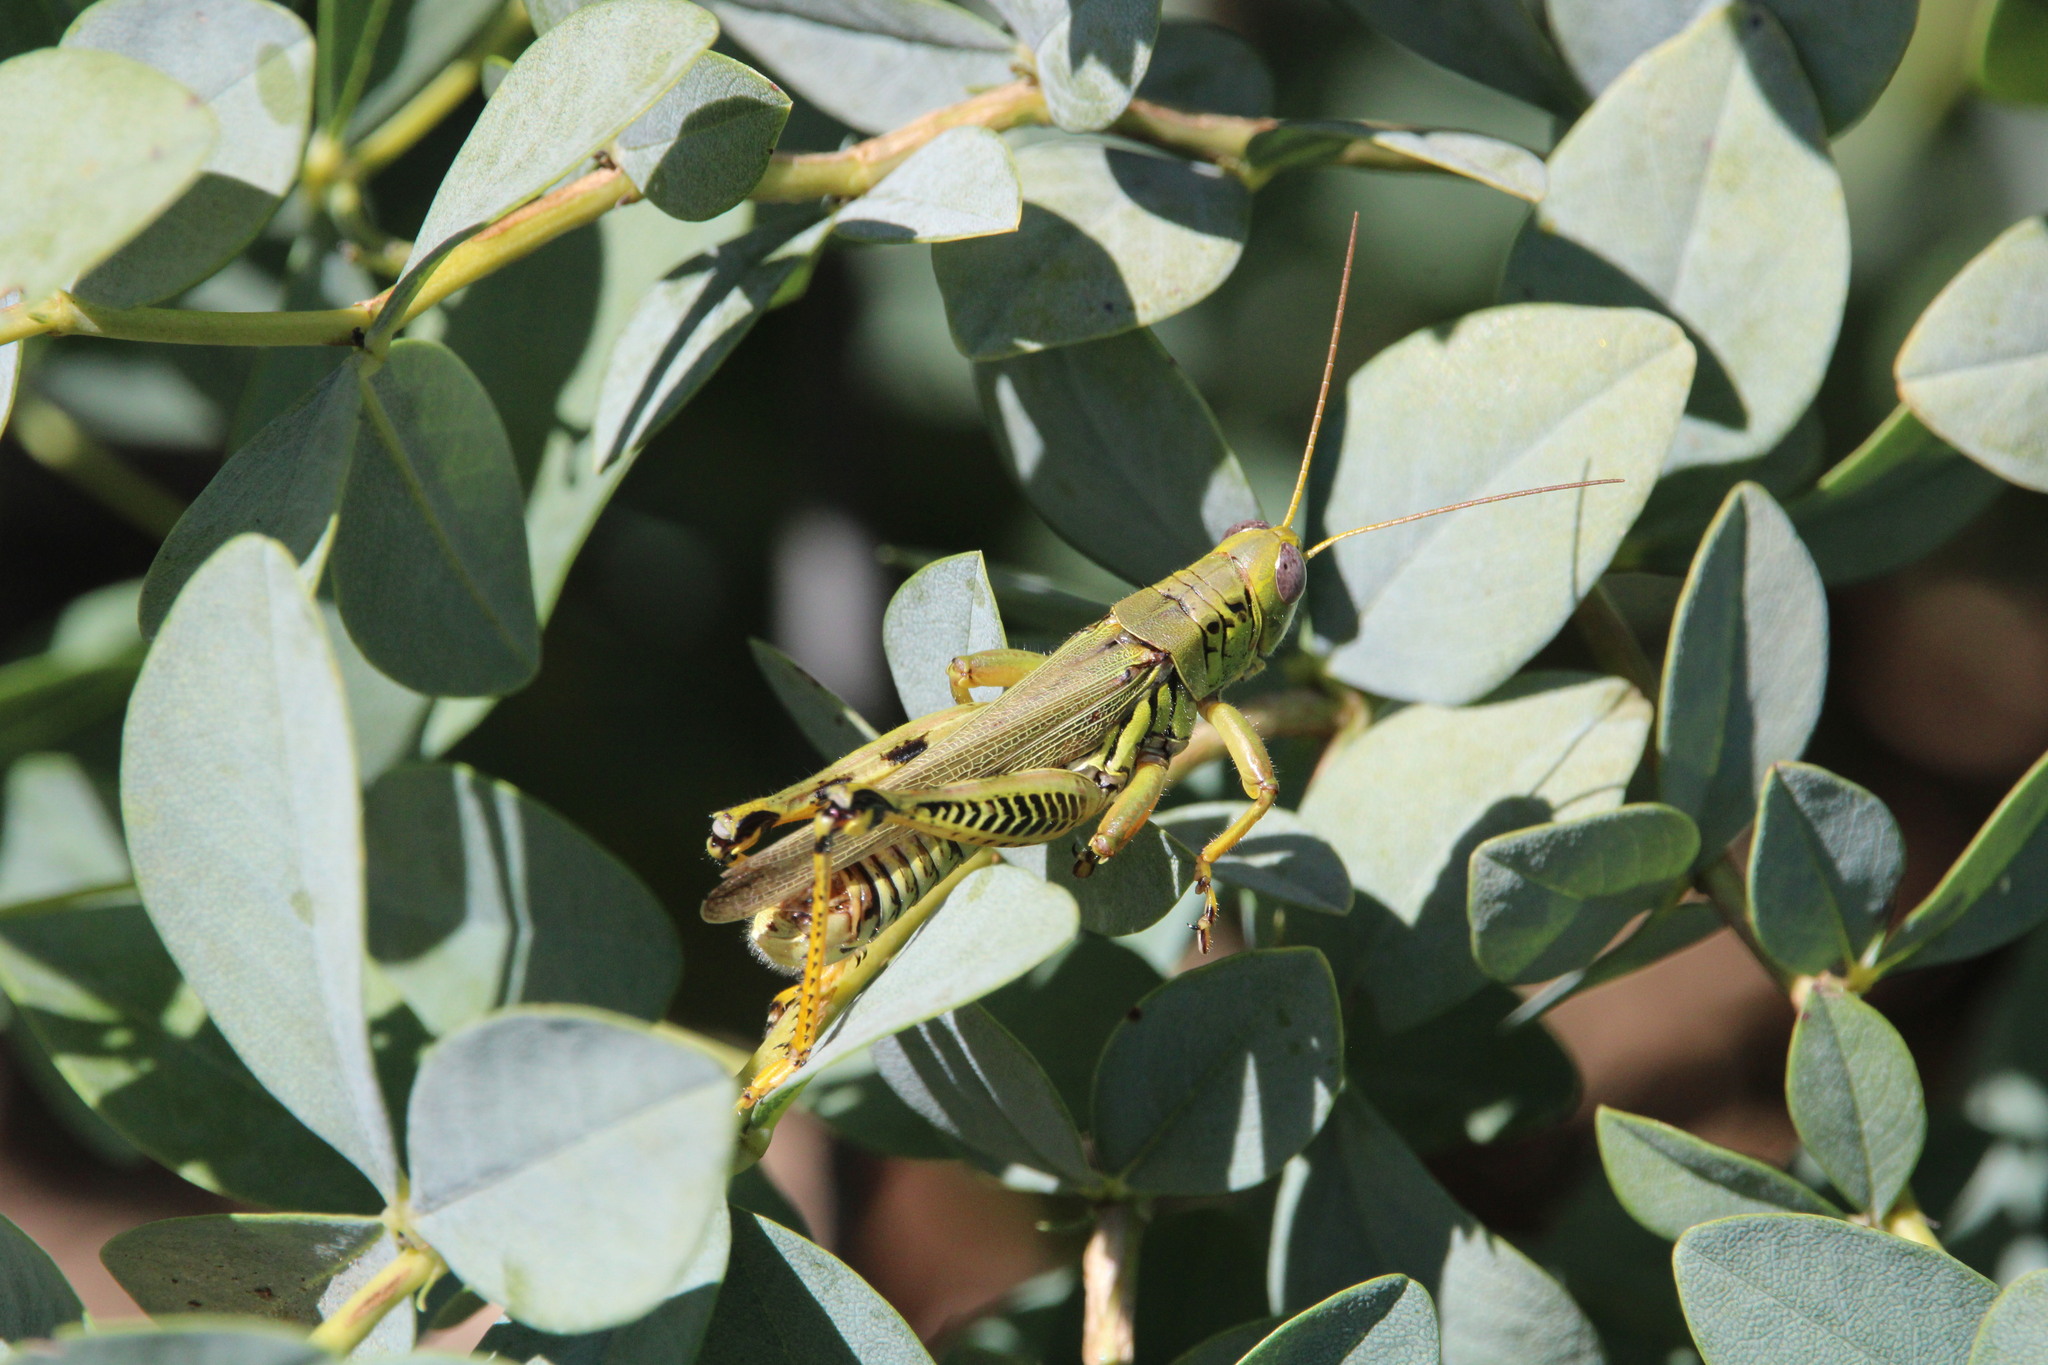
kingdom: Animalia
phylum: Arthropoda
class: Insecta
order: Orthoptera
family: Acrididae
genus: Melanoplus
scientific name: Melanoplus differentialis
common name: Differential grasshopper
